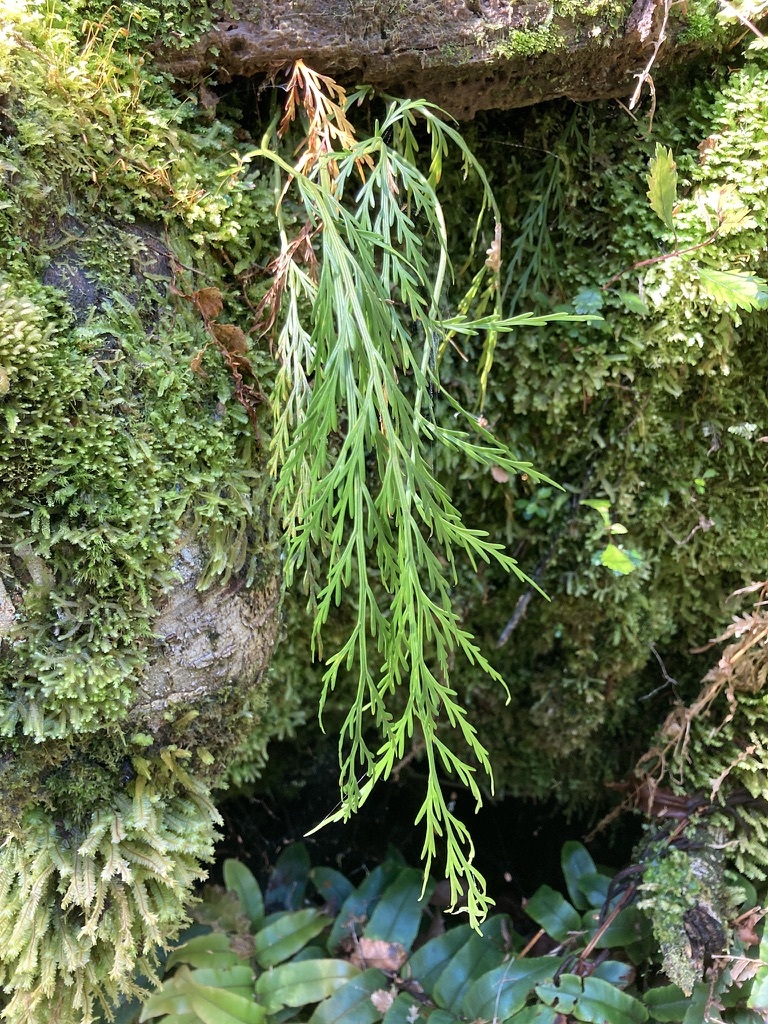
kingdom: Plantae
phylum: Tracheophyta
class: Polypodiopsida
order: Polypodiales
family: Aspleniaceae
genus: Asplenium
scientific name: Asplenium flaccidum
